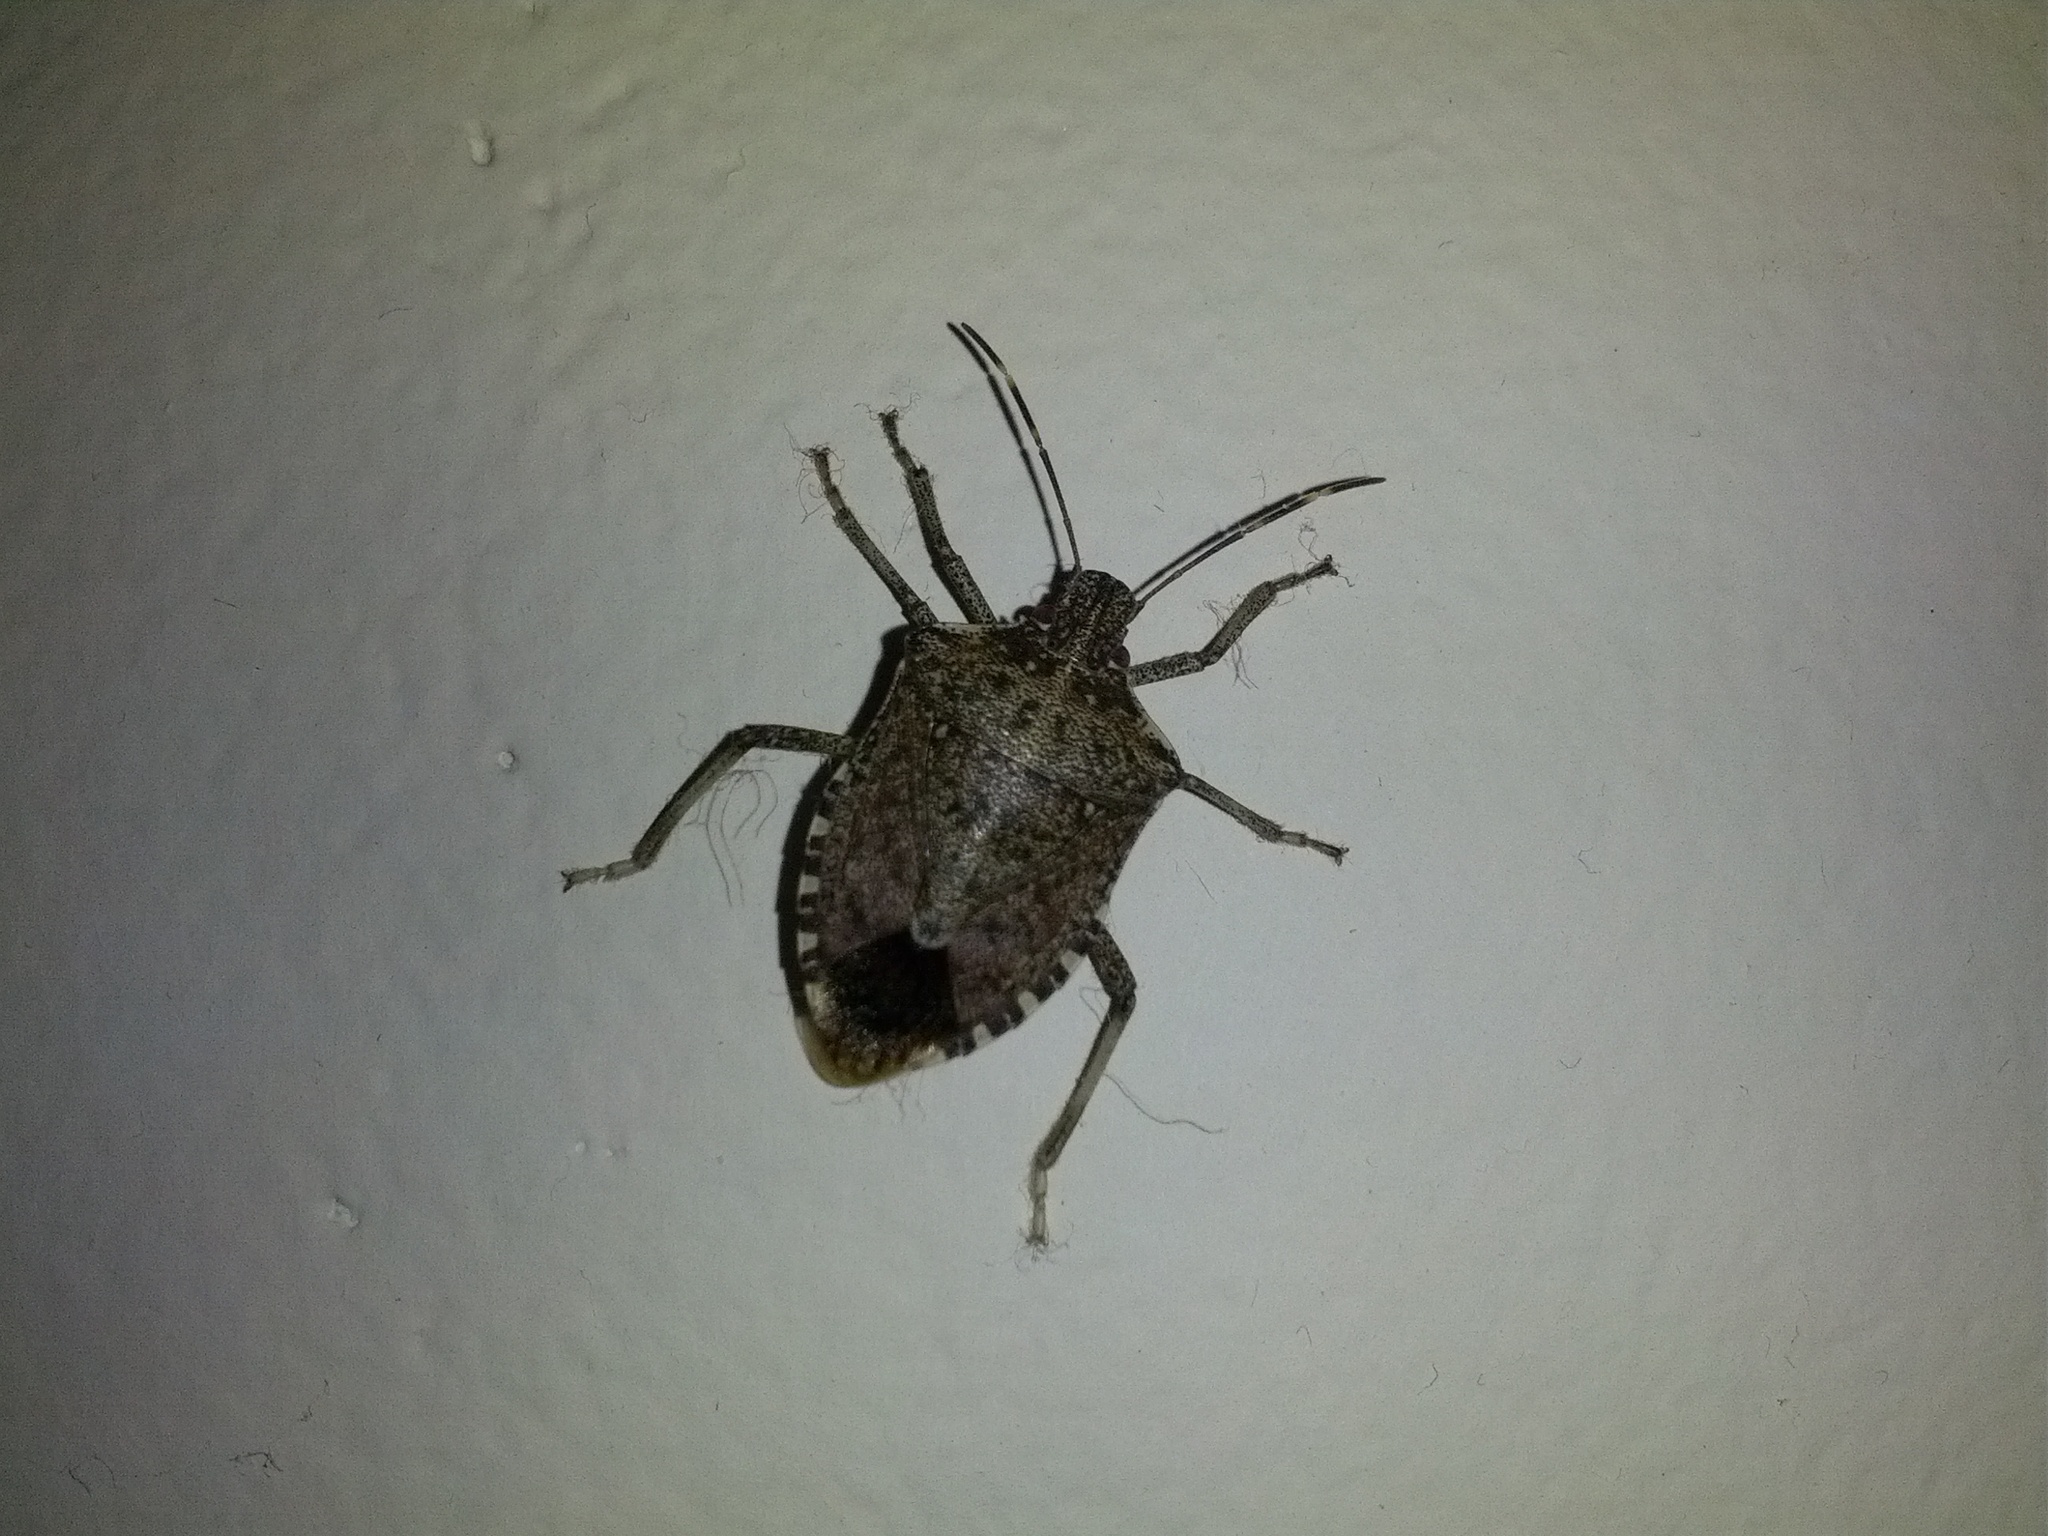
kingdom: Animalia
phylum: Arthropoda
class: Insecta
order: Hemiptera
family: Pentatomidae
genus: Halyomorpha
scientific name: Halyomorpha halys
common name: Brown marmorated stink bug
